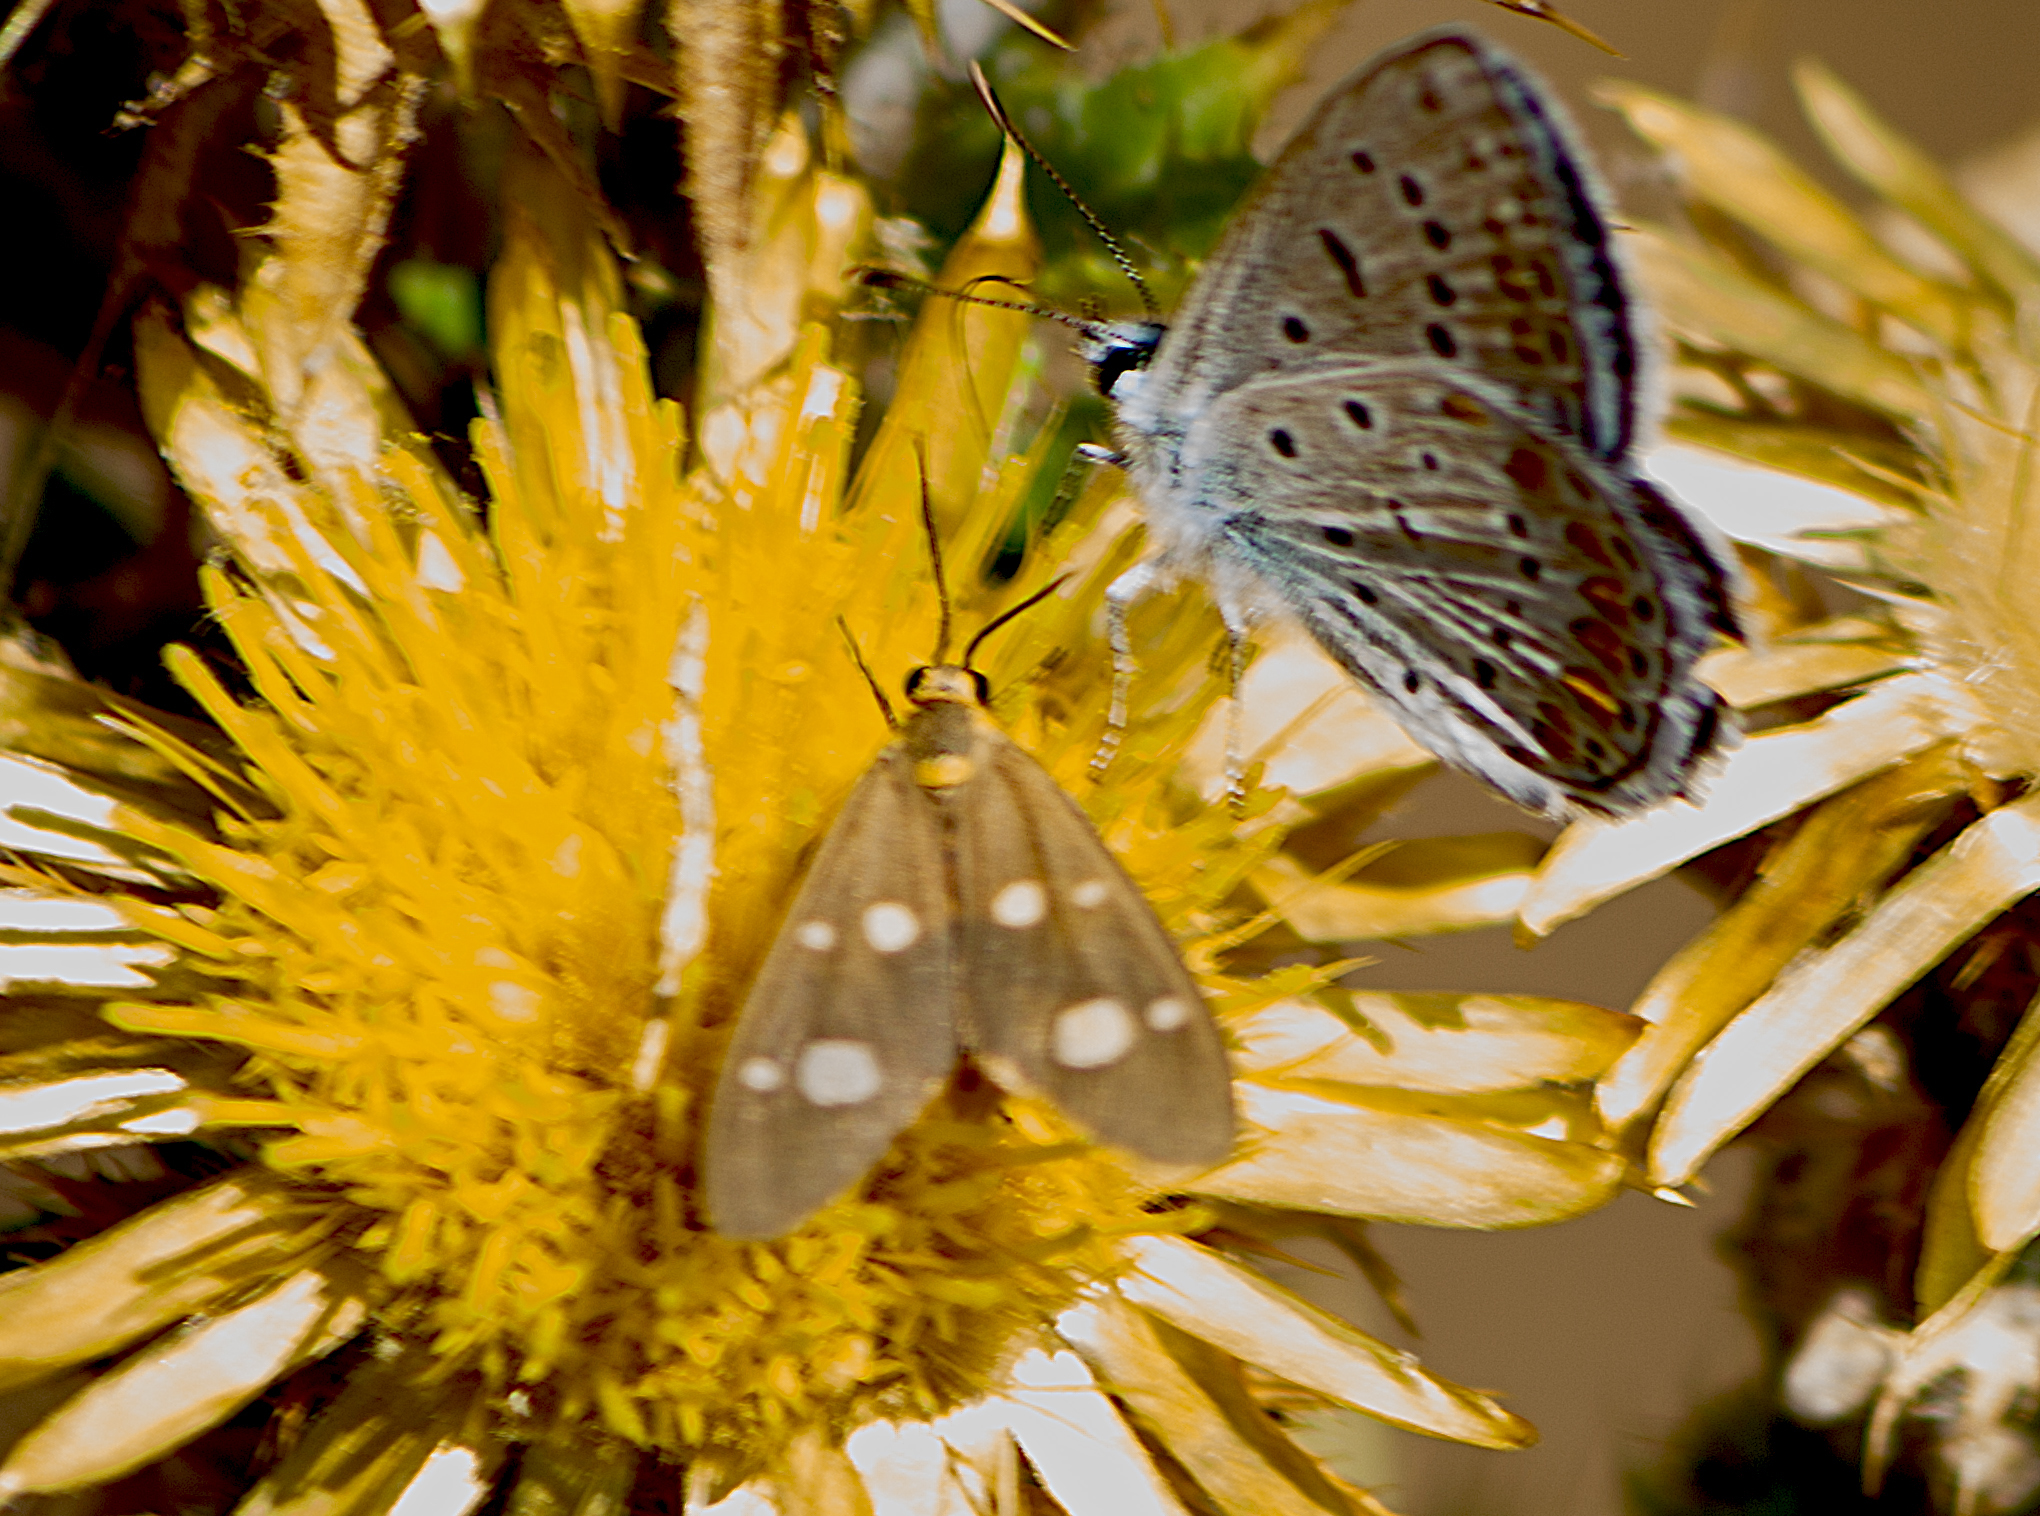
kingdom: Animalia
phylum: Arthropoda
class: Insecta
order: Lepidoptera
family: Erebidae
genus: Dysauxes
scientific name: Dysauxes punctata
